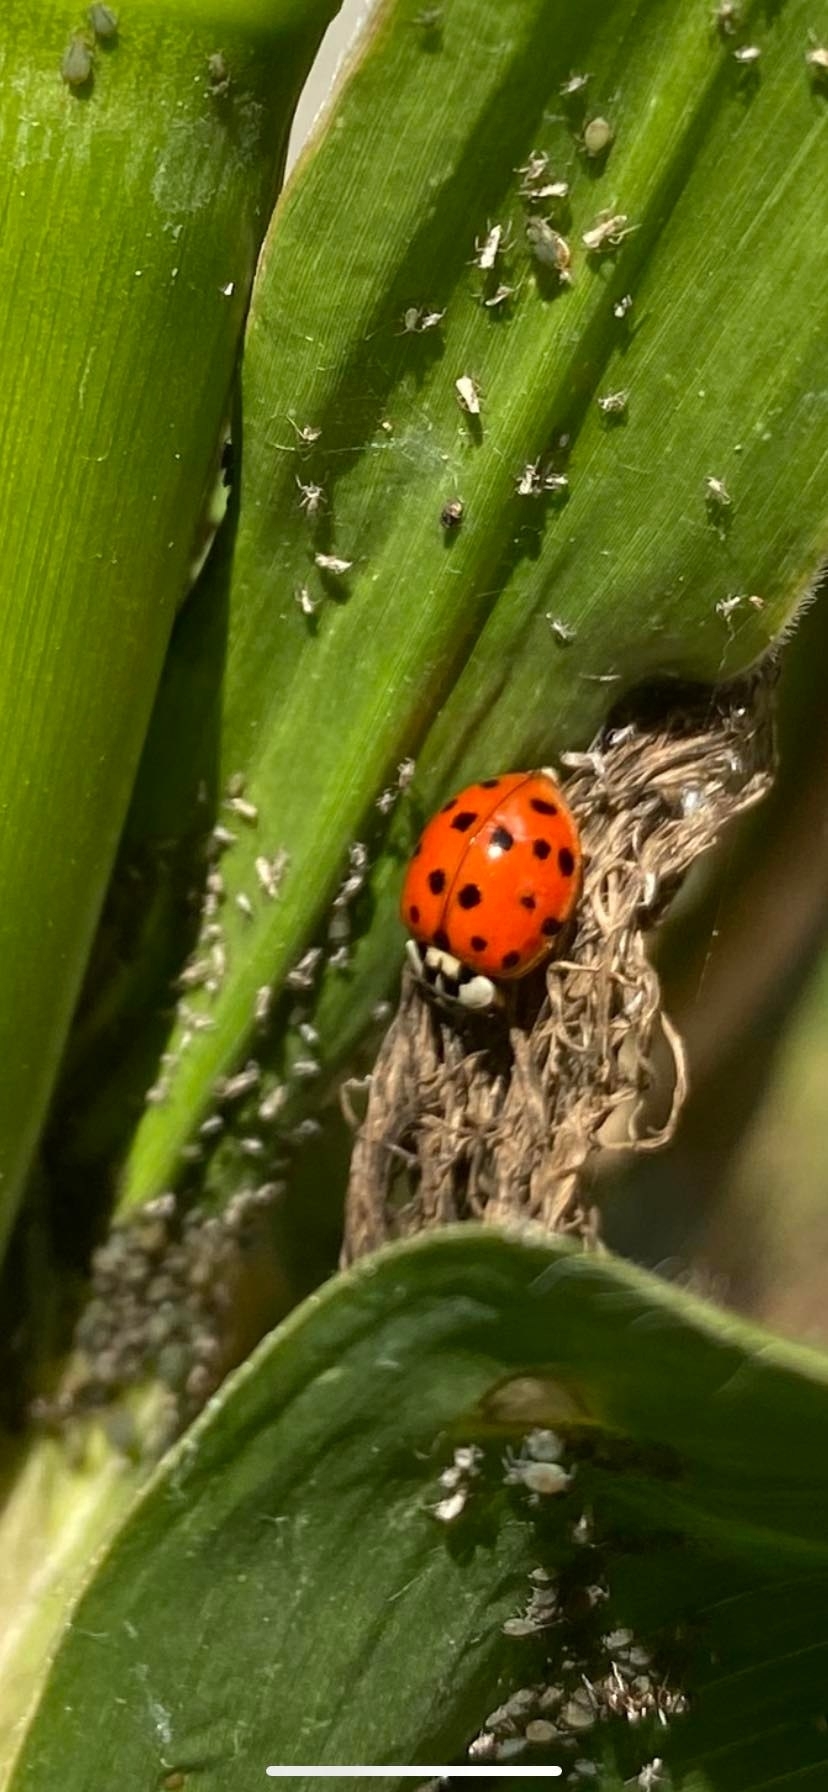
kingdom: Animalia
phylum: Arthropoda
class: Insecta
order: Coleoptera
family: Coccinellidae
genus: Harmonia
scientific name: Harmonia axyridis
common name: Harlequin ladybird
